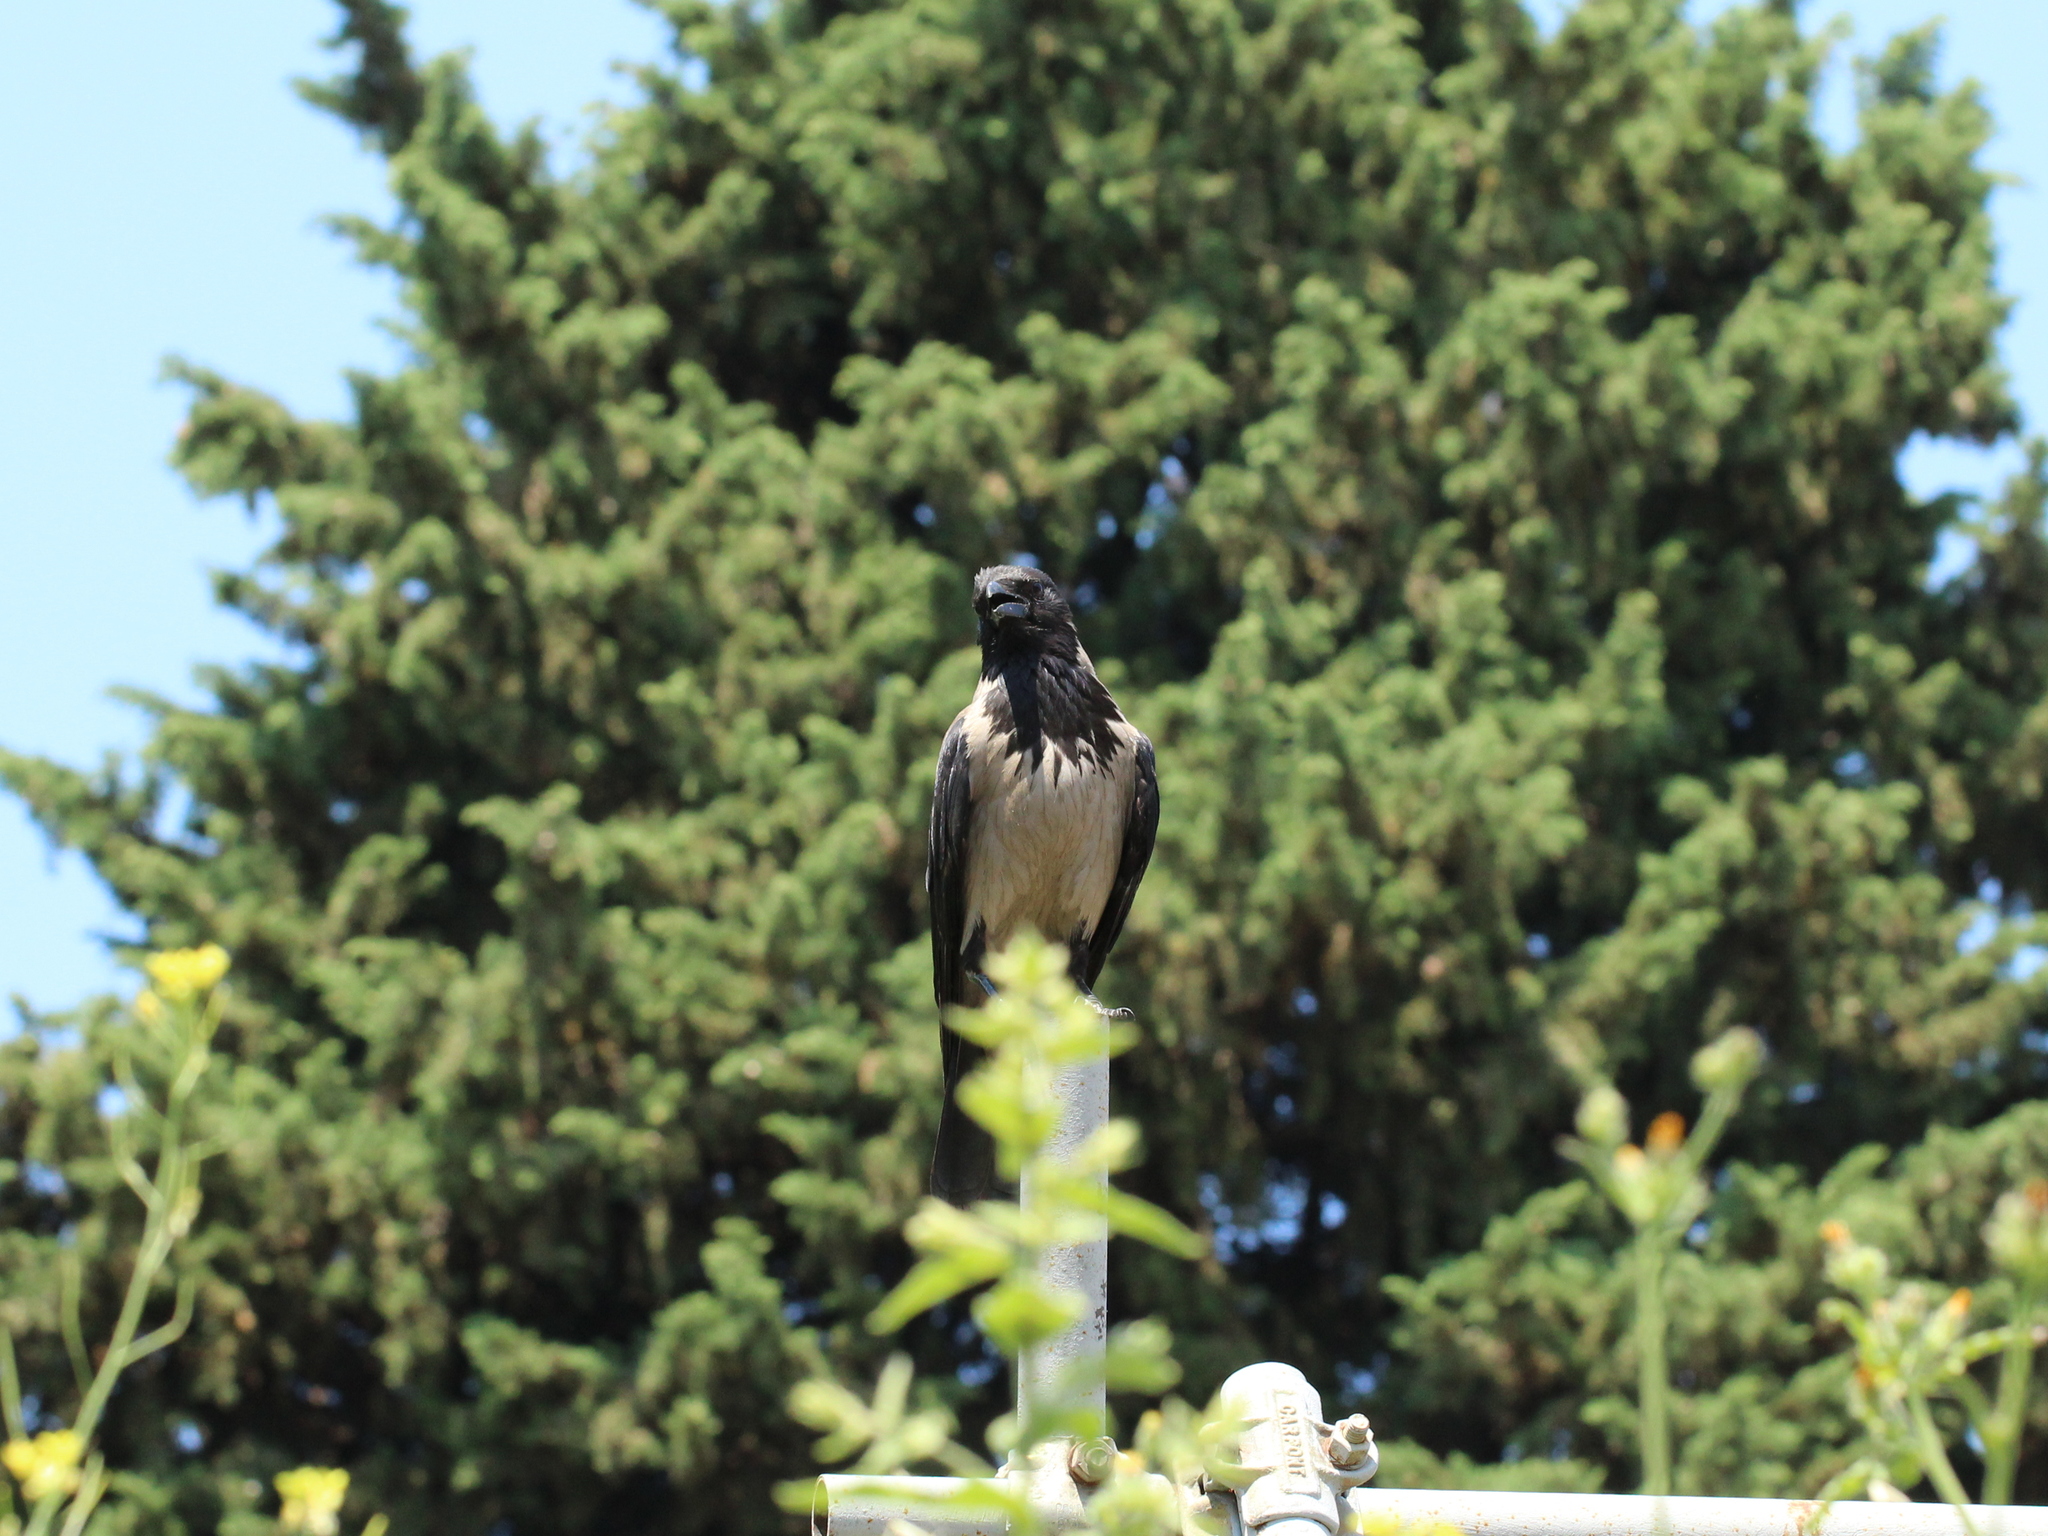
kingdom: Animalia
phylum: Chordata
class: Aves
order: Passeriformes
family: Corvidae
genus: Corvus
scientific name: Corvus cornix
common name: Hooded crow
